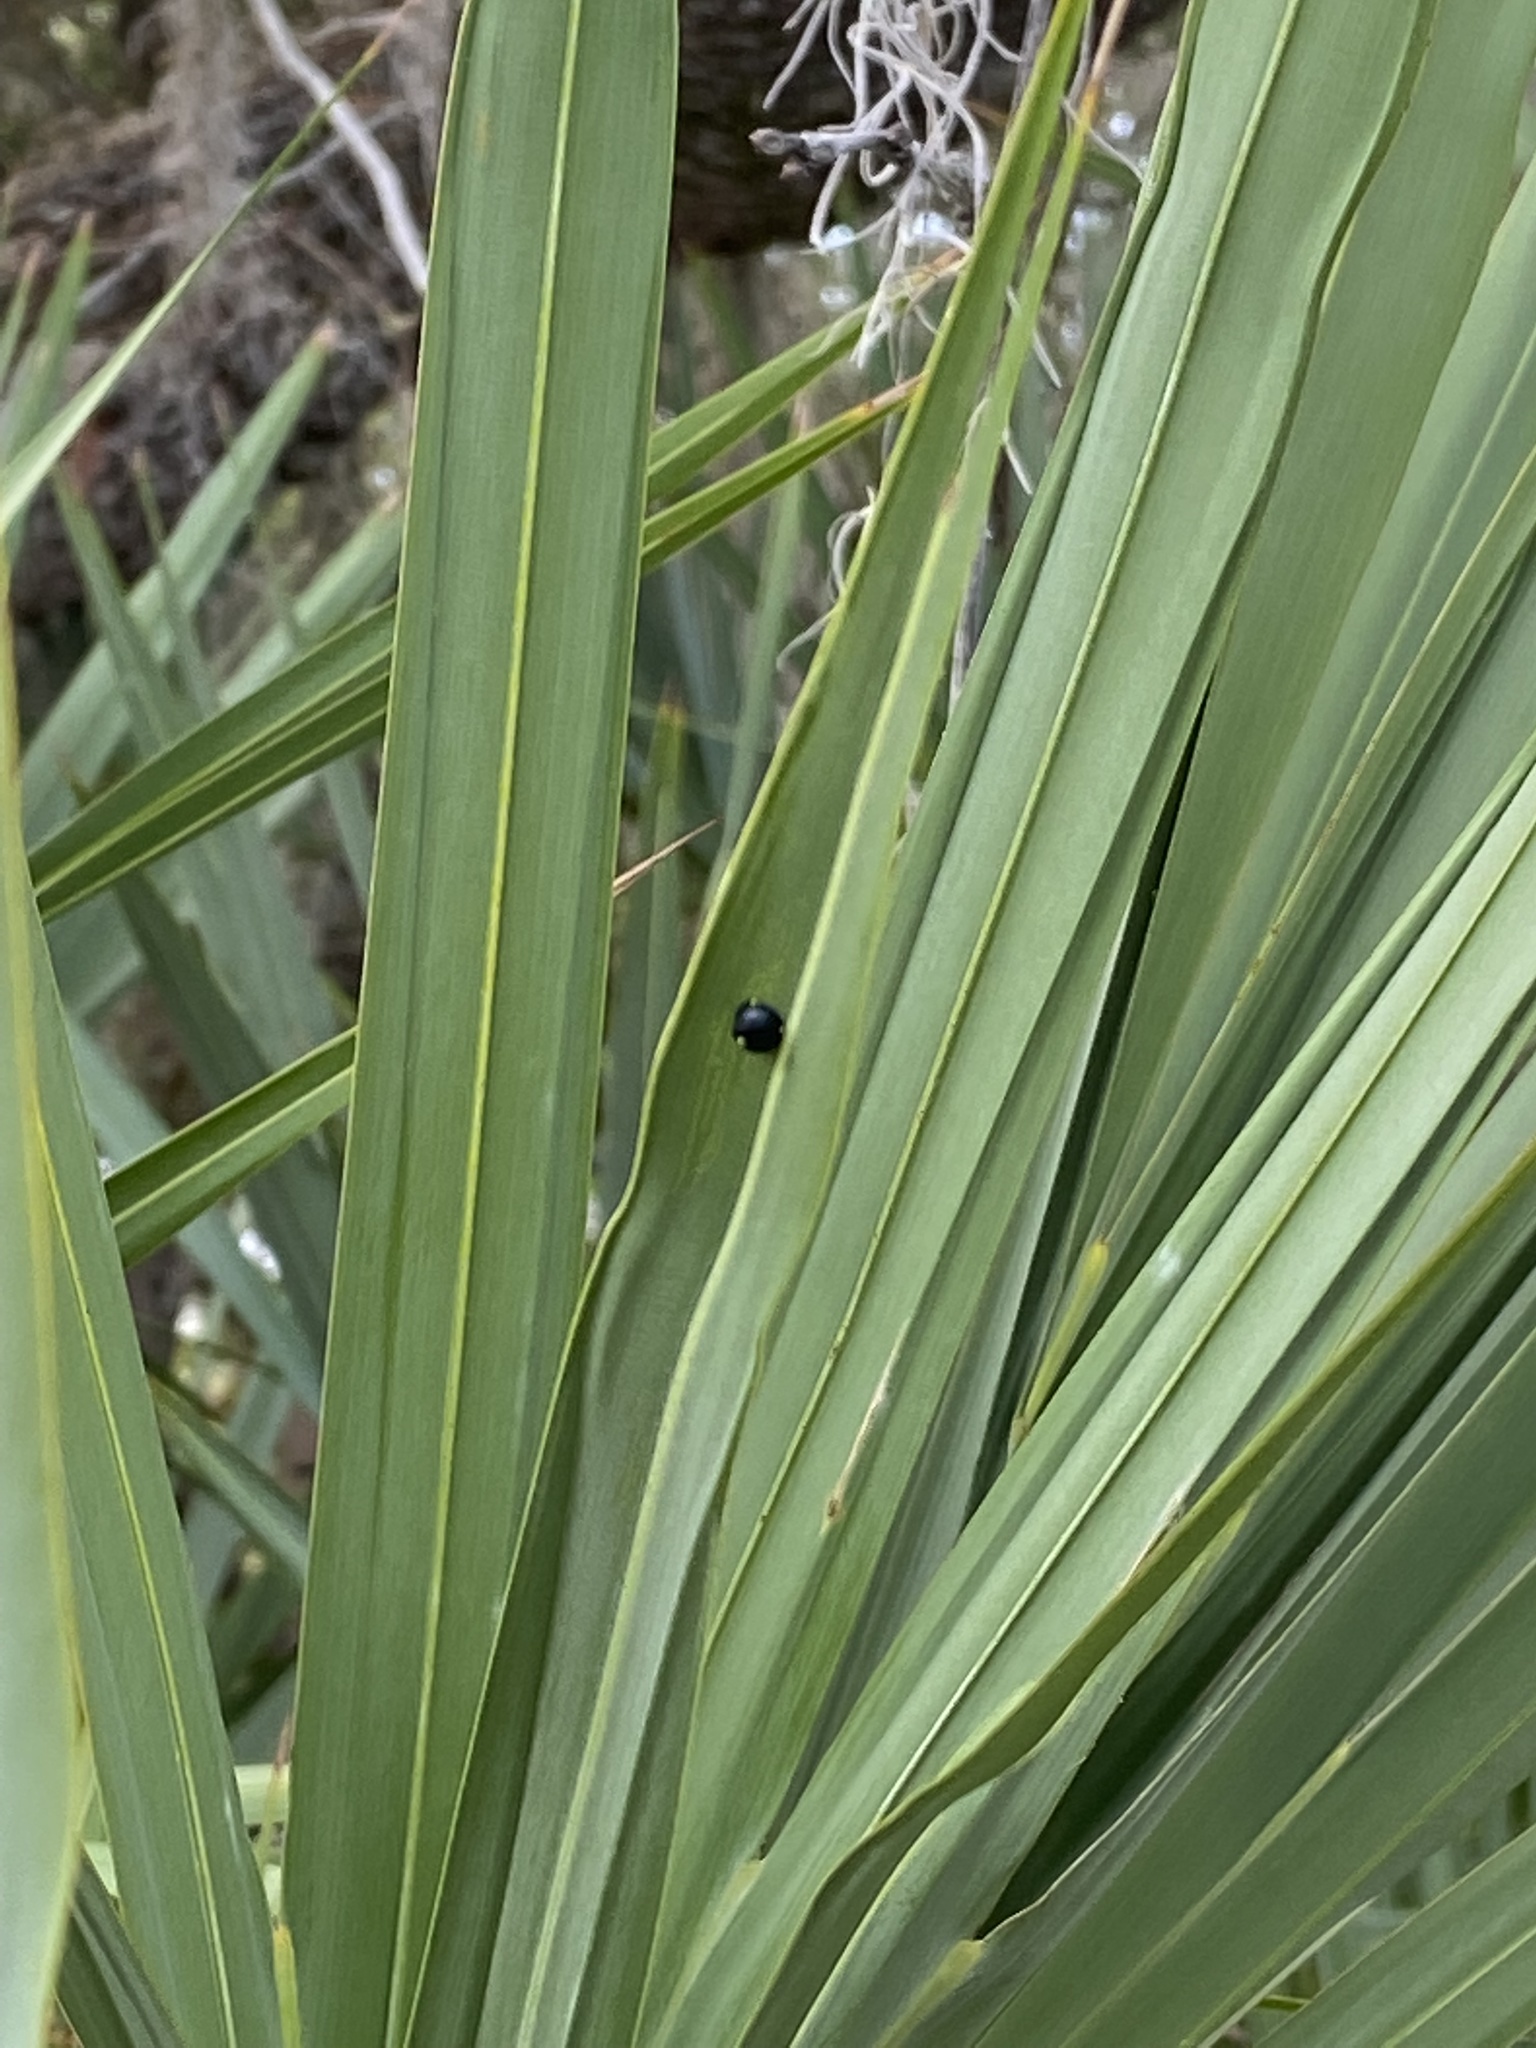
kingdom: Animalia
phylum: Arthropoda
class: Insecta
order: Coleoptera
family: Chrysomelidae
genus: Hemisphaerota
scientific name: Hemisphaerota cyanea
